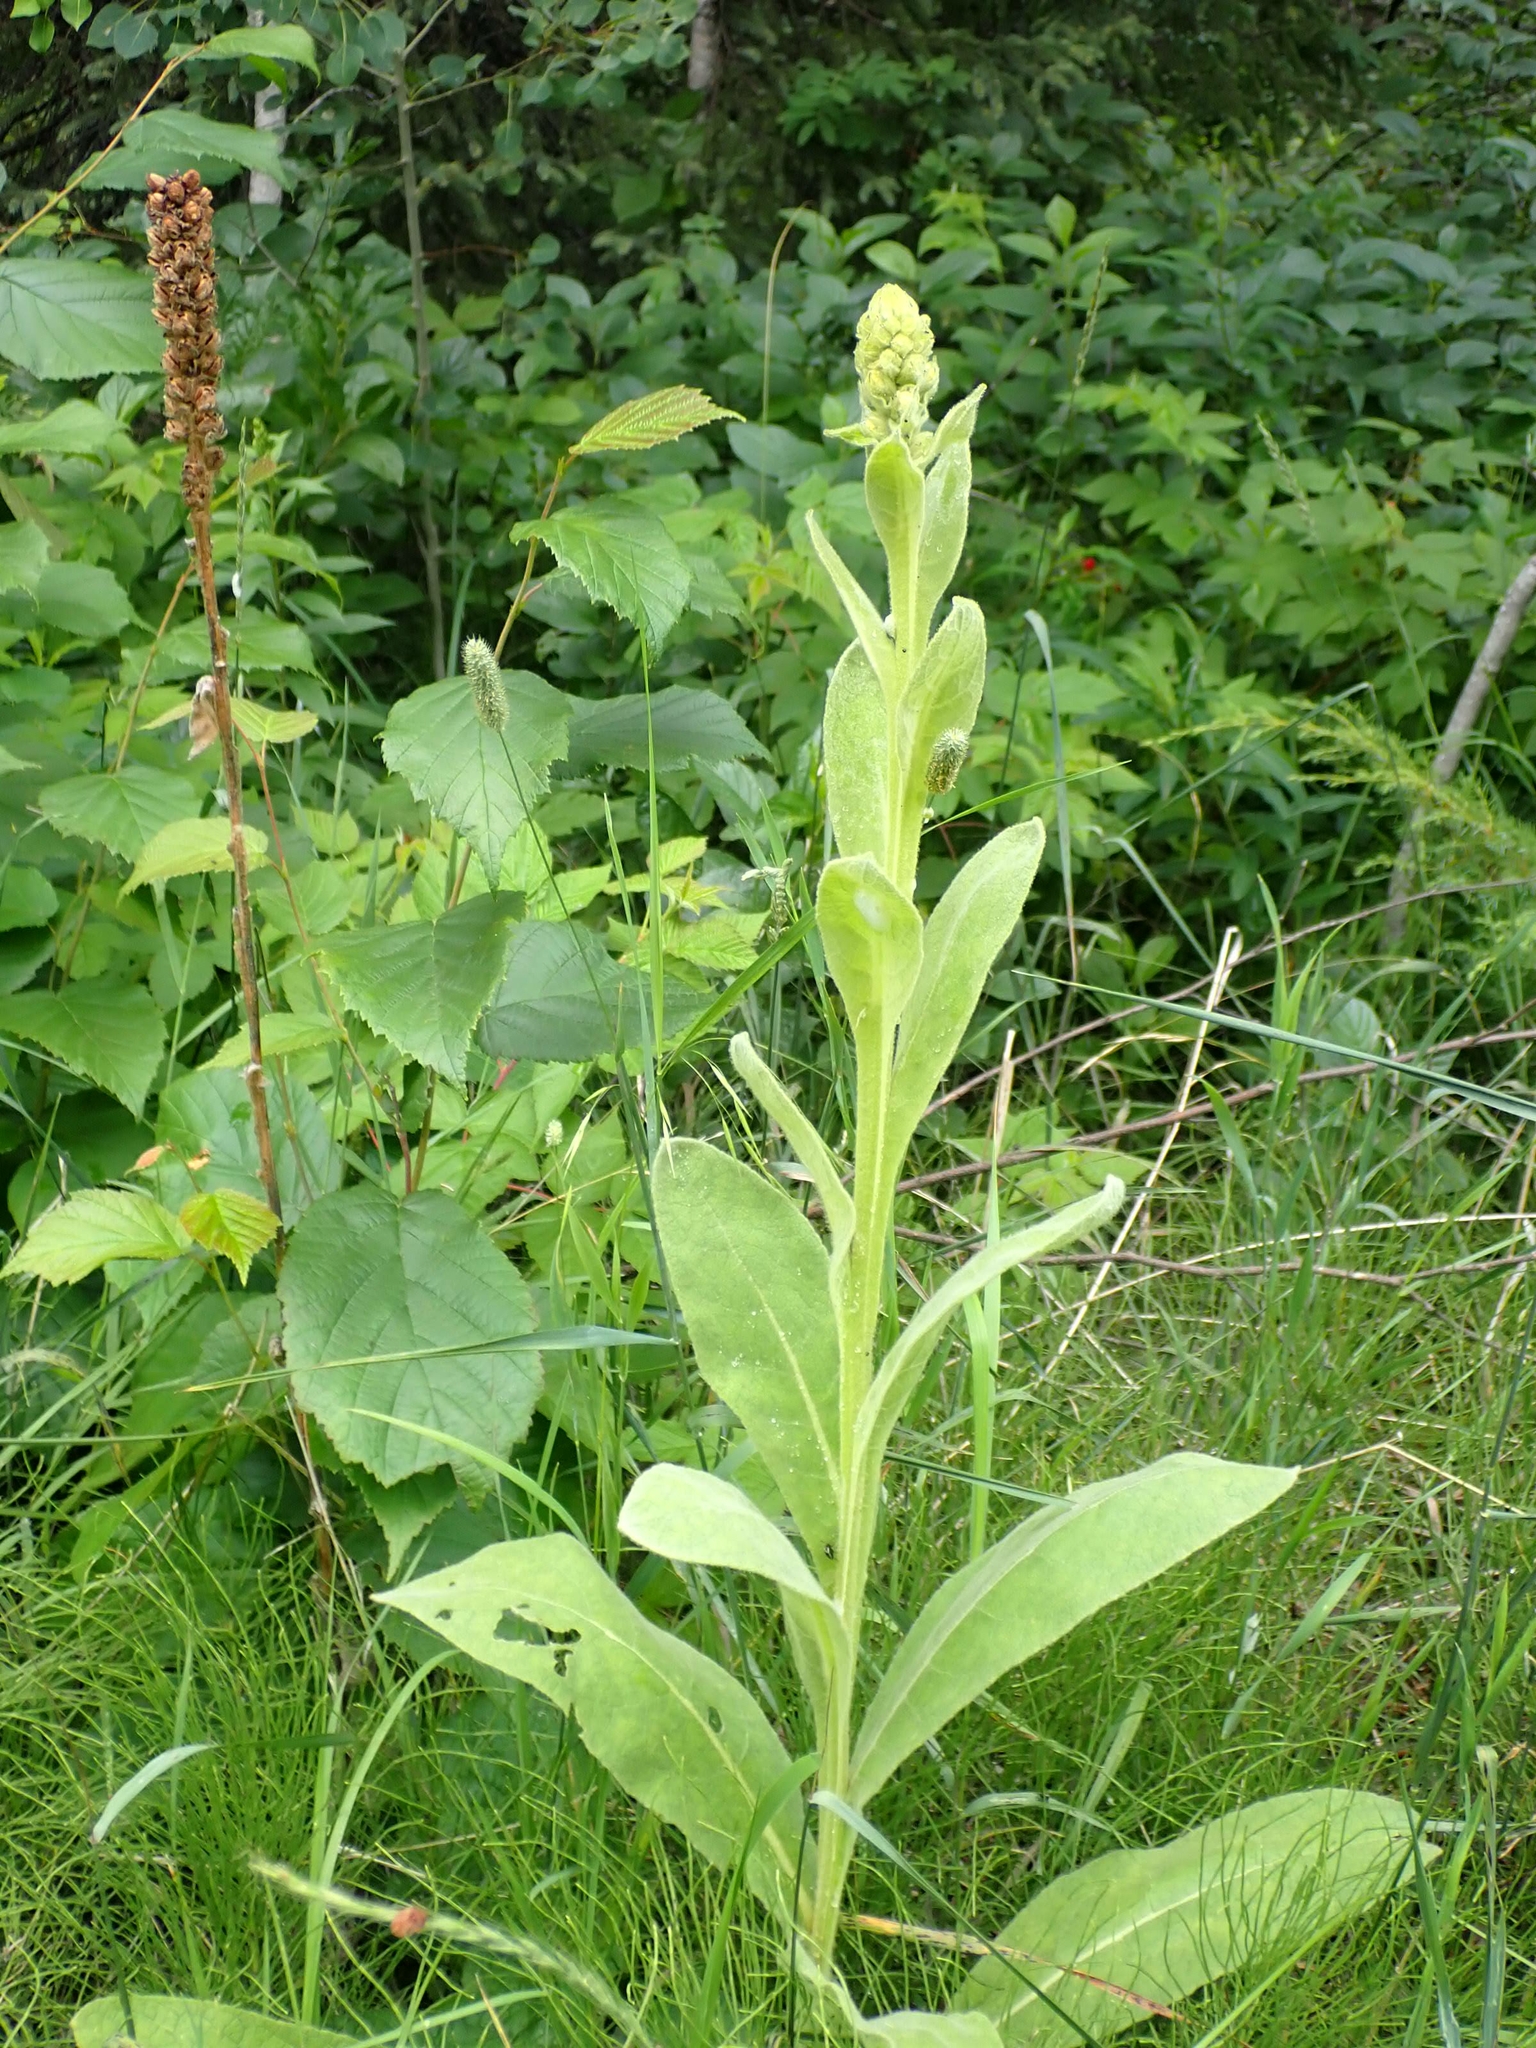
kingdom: Plantae
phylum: Tracheophyta
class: Magnoliopsida
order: Lamiales
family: Scrophulariaceae
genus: Verbascum
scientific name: Verbascum thapsus
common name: Common mullein
